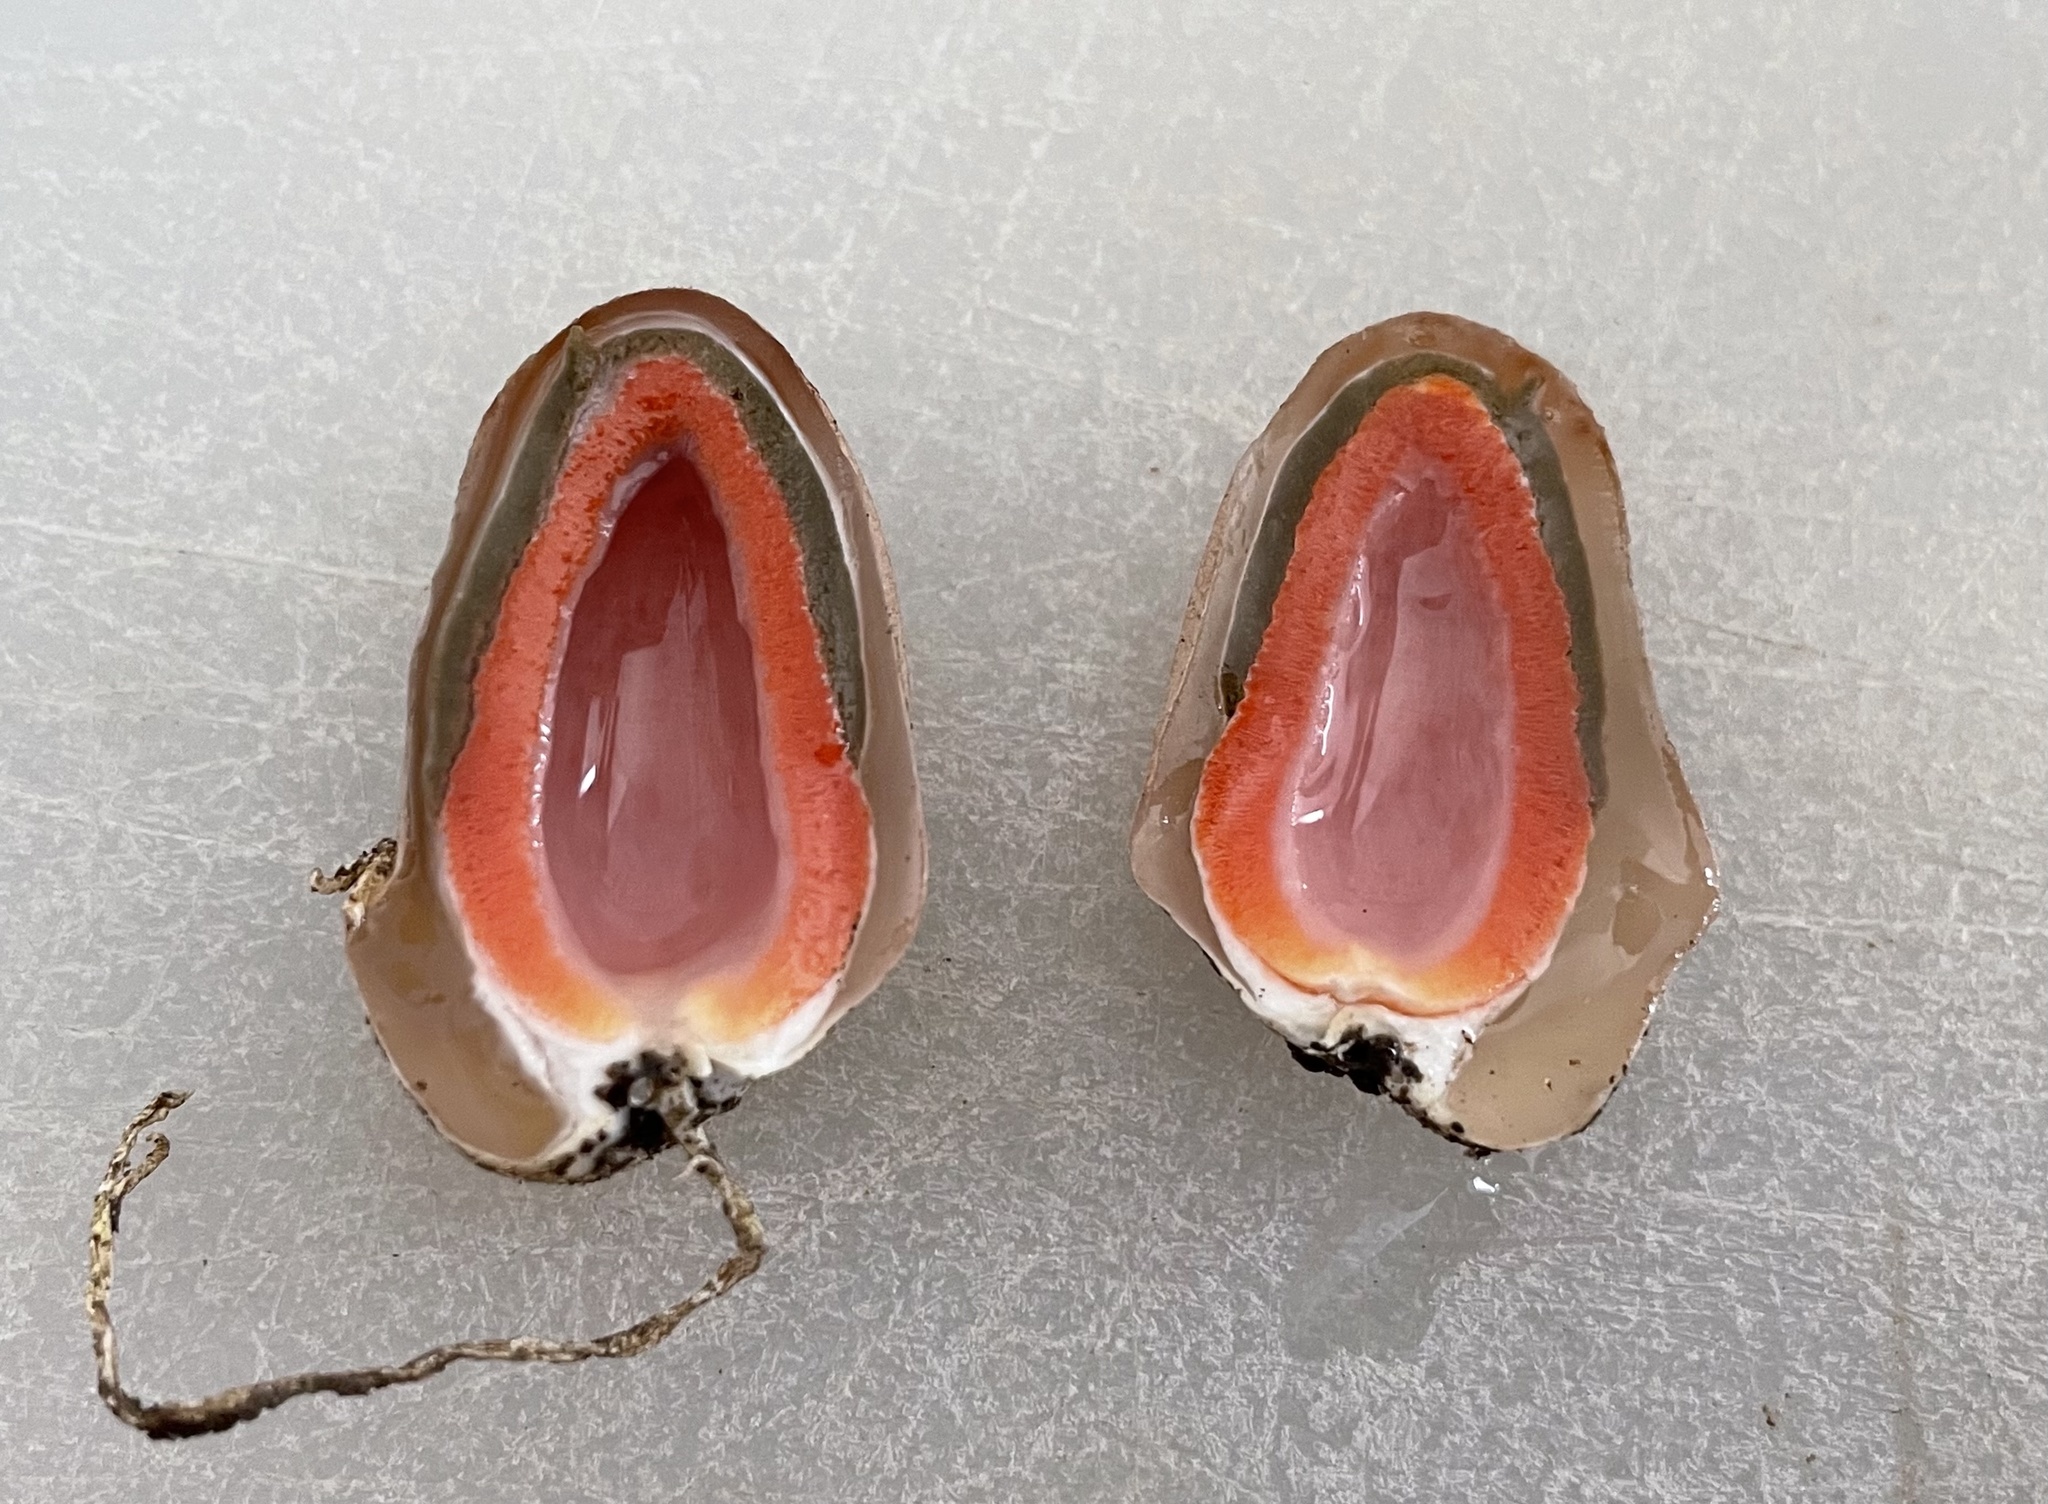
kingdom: Fungi
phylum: Basidiomycota
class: Agaricomycetes
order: Phallales
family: Phallaceae
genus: Mutinus
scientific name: Mutinus elegans
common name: Devil's dipstick
